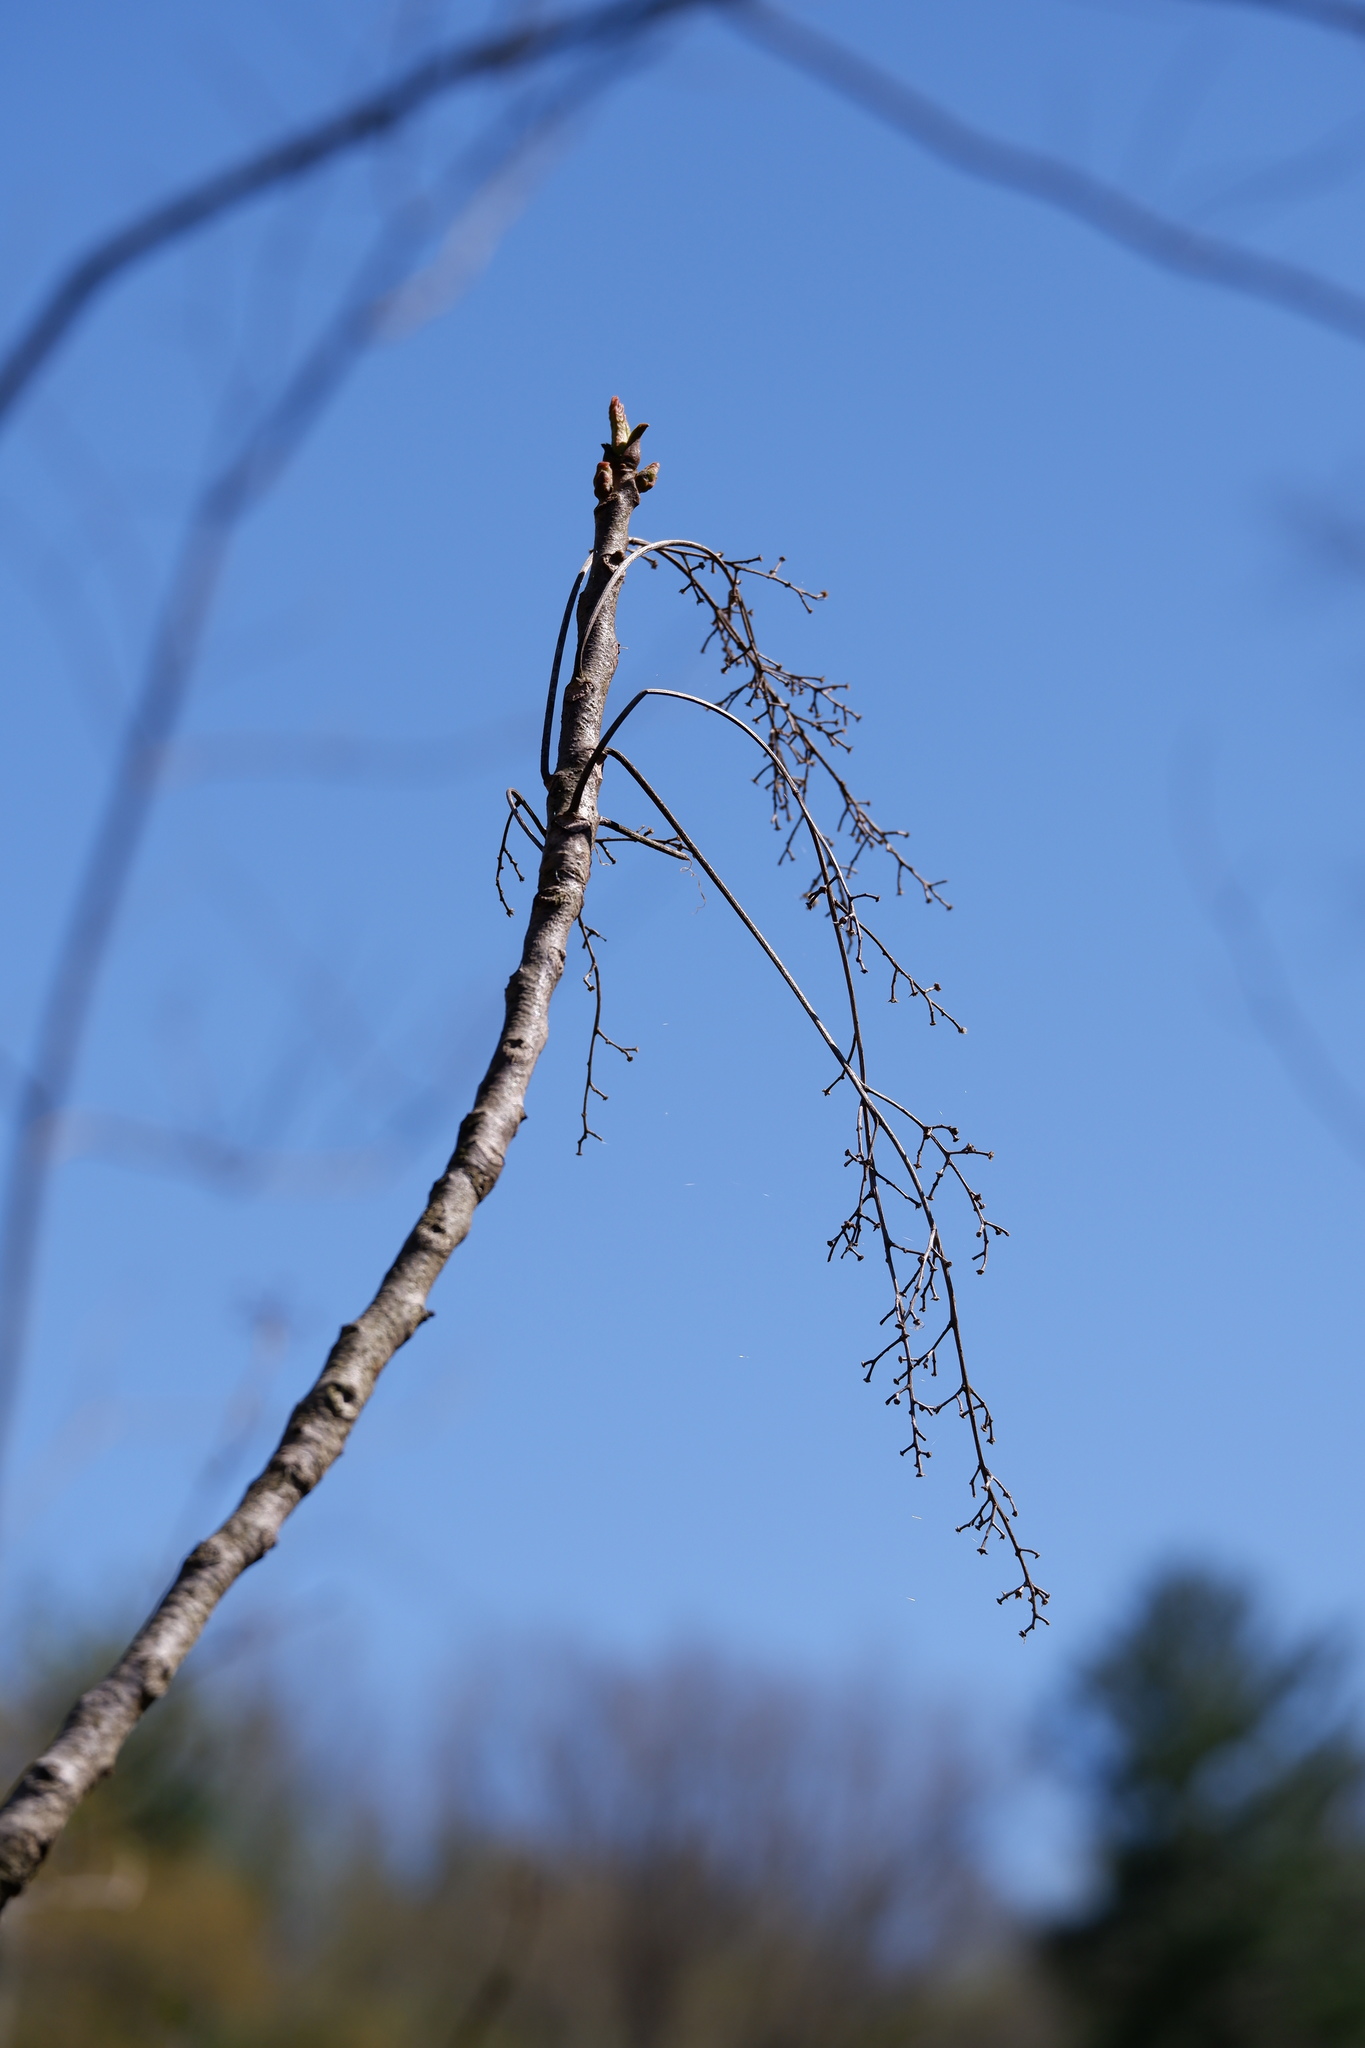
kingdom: Plantae
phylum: Tracheophyta
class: Magnoliopsida
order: Sapindales
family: Anacardiaceae
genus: Toxicodendron
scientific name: Toxicodendron vernix
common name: Poison sumac
